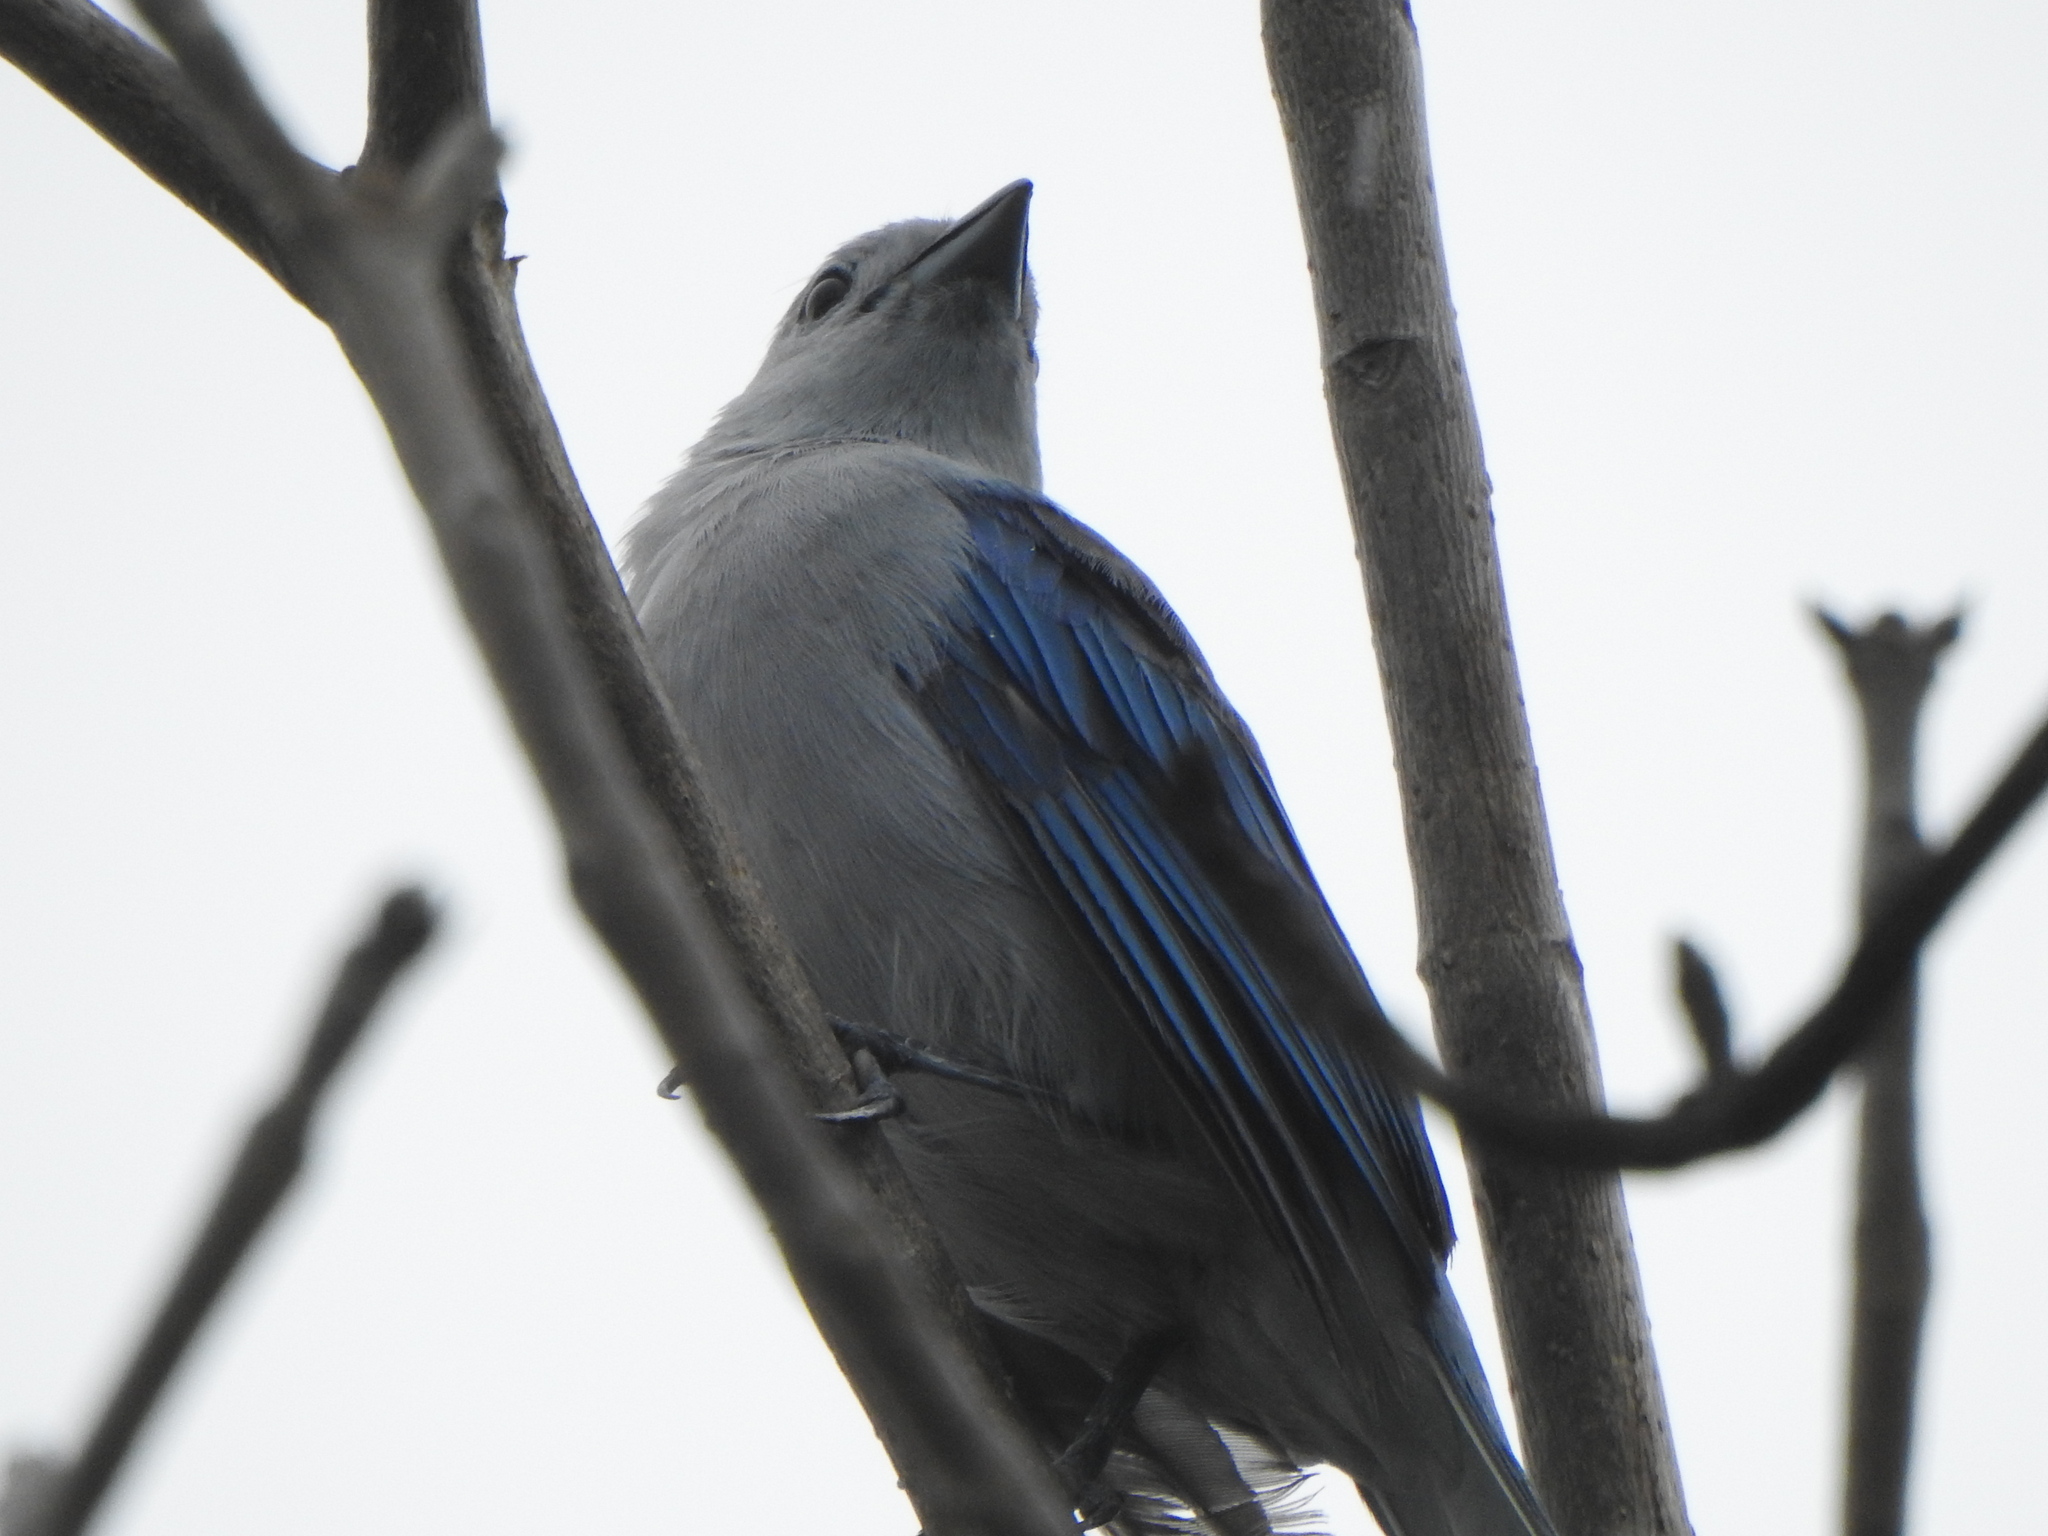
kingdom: Animalia
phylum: Chordata
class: Aves
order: Passeriformes
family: Thraupidae
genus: Thraupis
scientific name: Thraupis episcopus
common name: Blue-grey tanager
